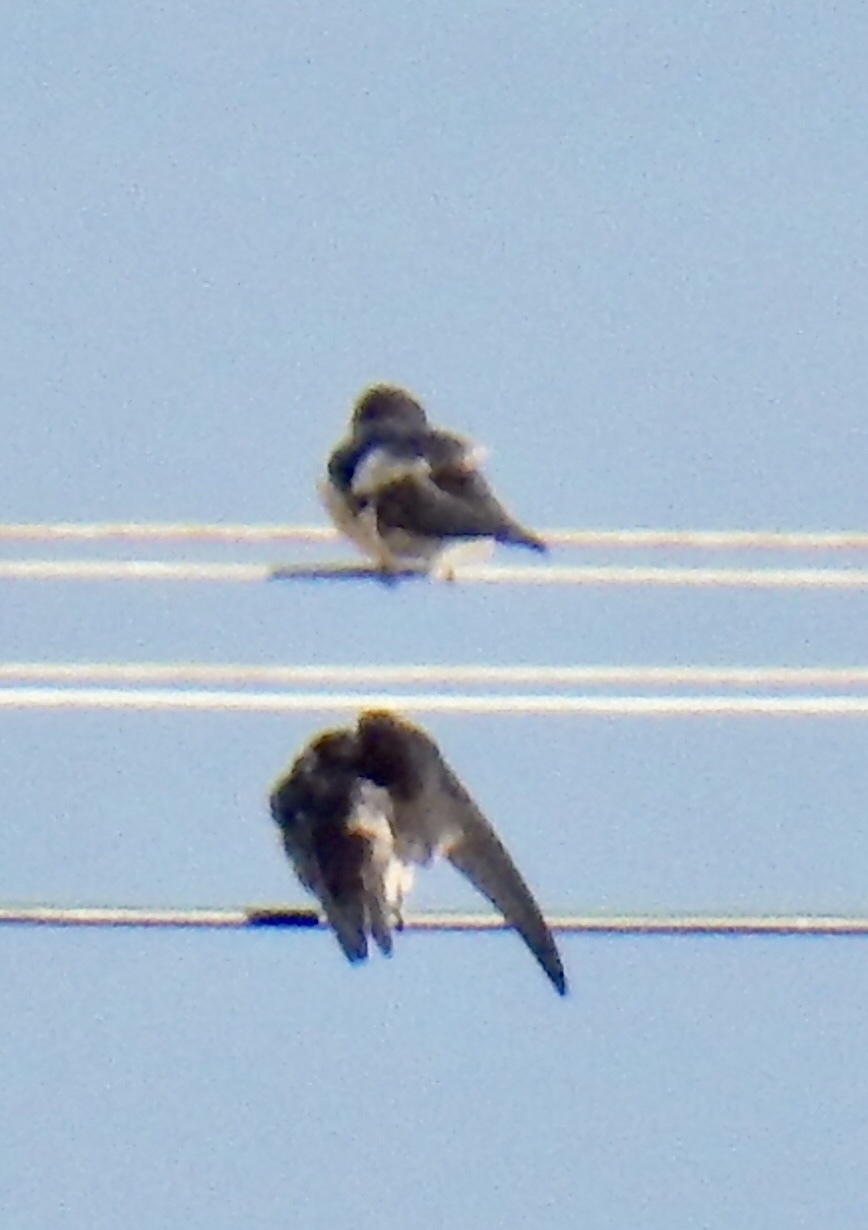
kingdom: Animalia
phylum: Chordata
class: Aves
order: Passeriformes
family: Hirundinidae
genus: Hirundo
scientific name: Hirundo rustica
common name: Barn swallow
